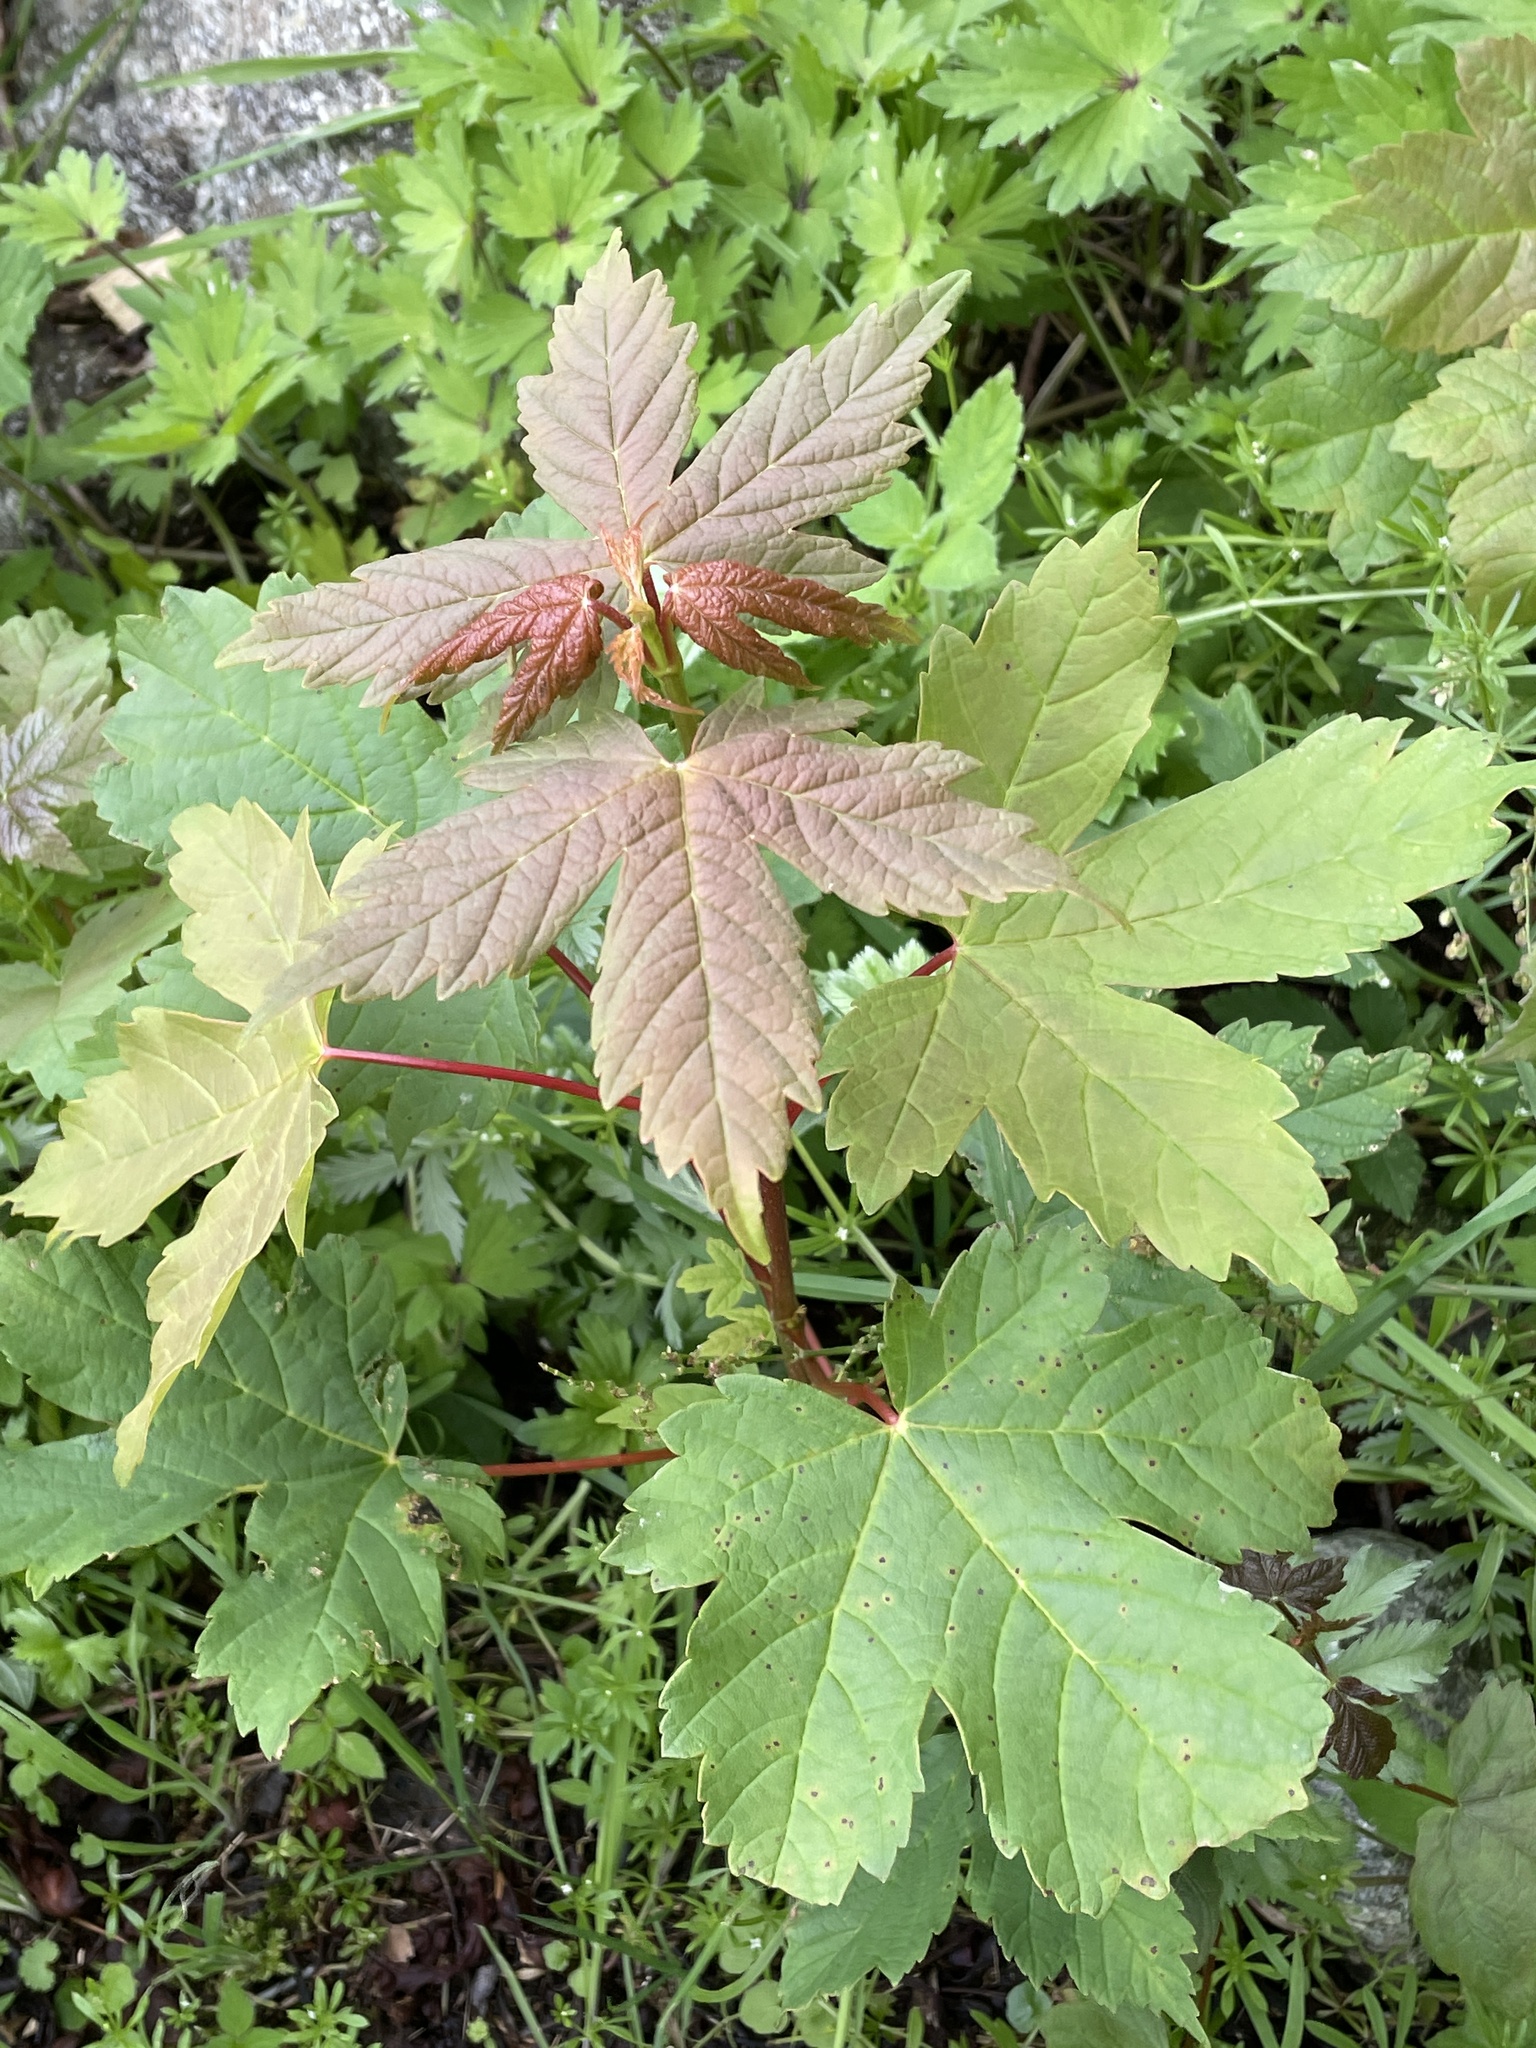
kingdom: Plantae
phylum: Tracheophyta
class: Magnoliopsida
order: Sapindales
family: Sapindaceae
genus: Acer
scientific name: Acer pseudoplatanus
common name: Sycamore
